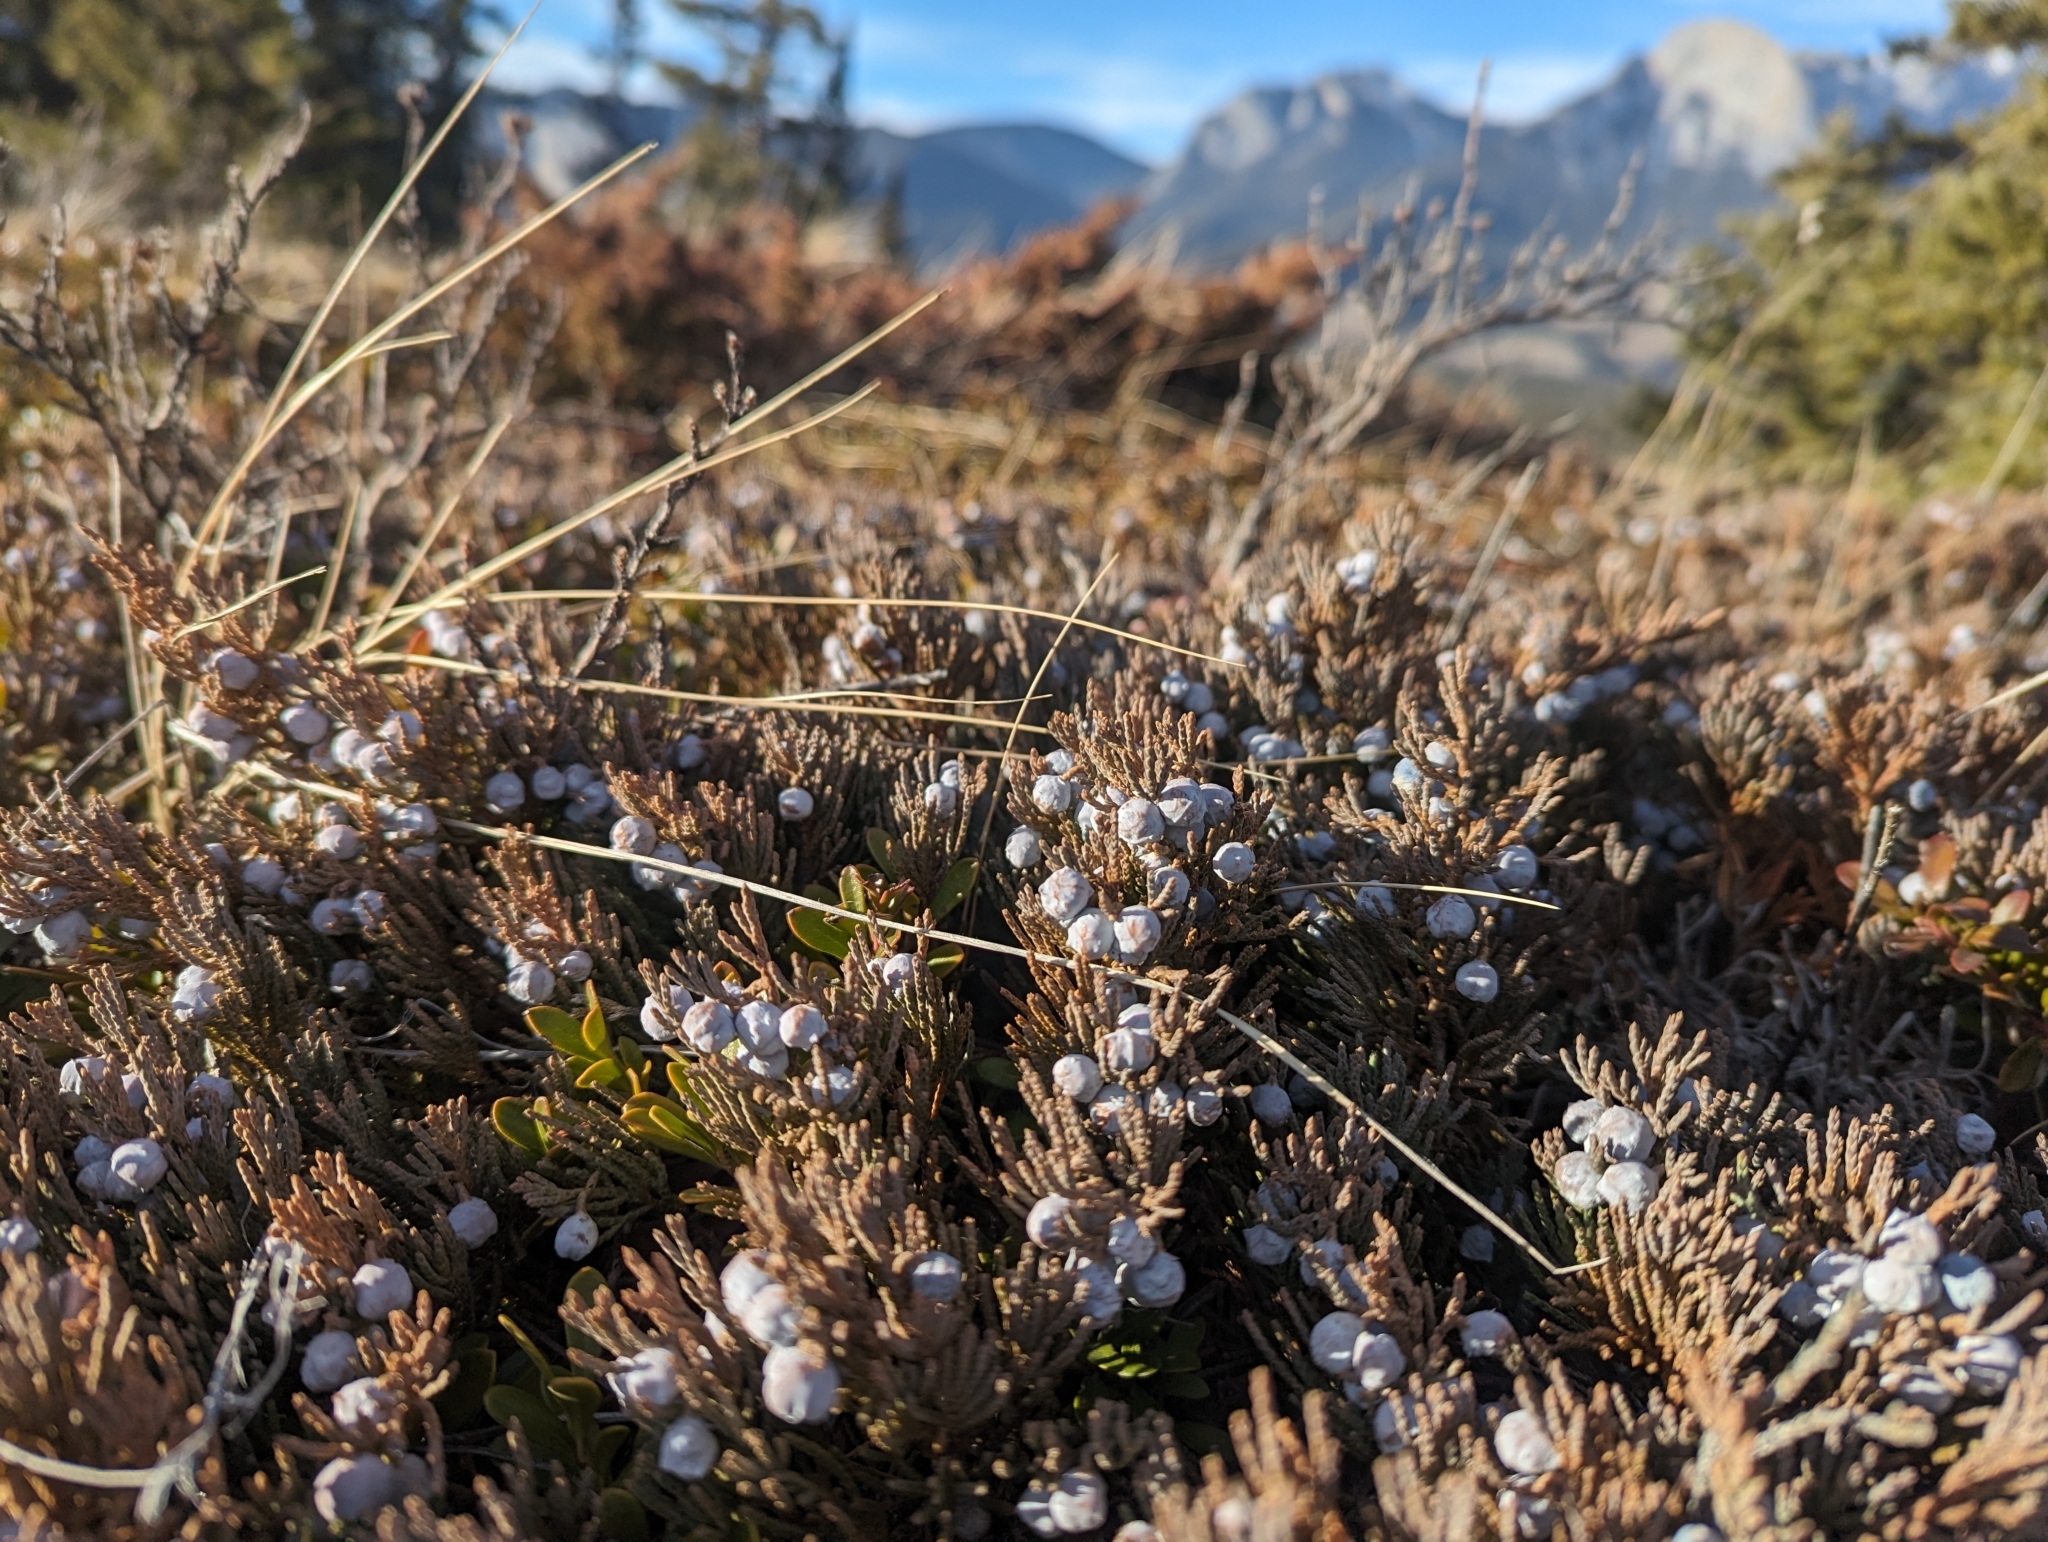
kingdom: Plantae
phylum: Tracheophyta
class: Pinopsida
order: Pinales
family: Cupressaceae
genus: Juniperus
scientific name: Juniperus horizontalis
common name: Creeping juniper
